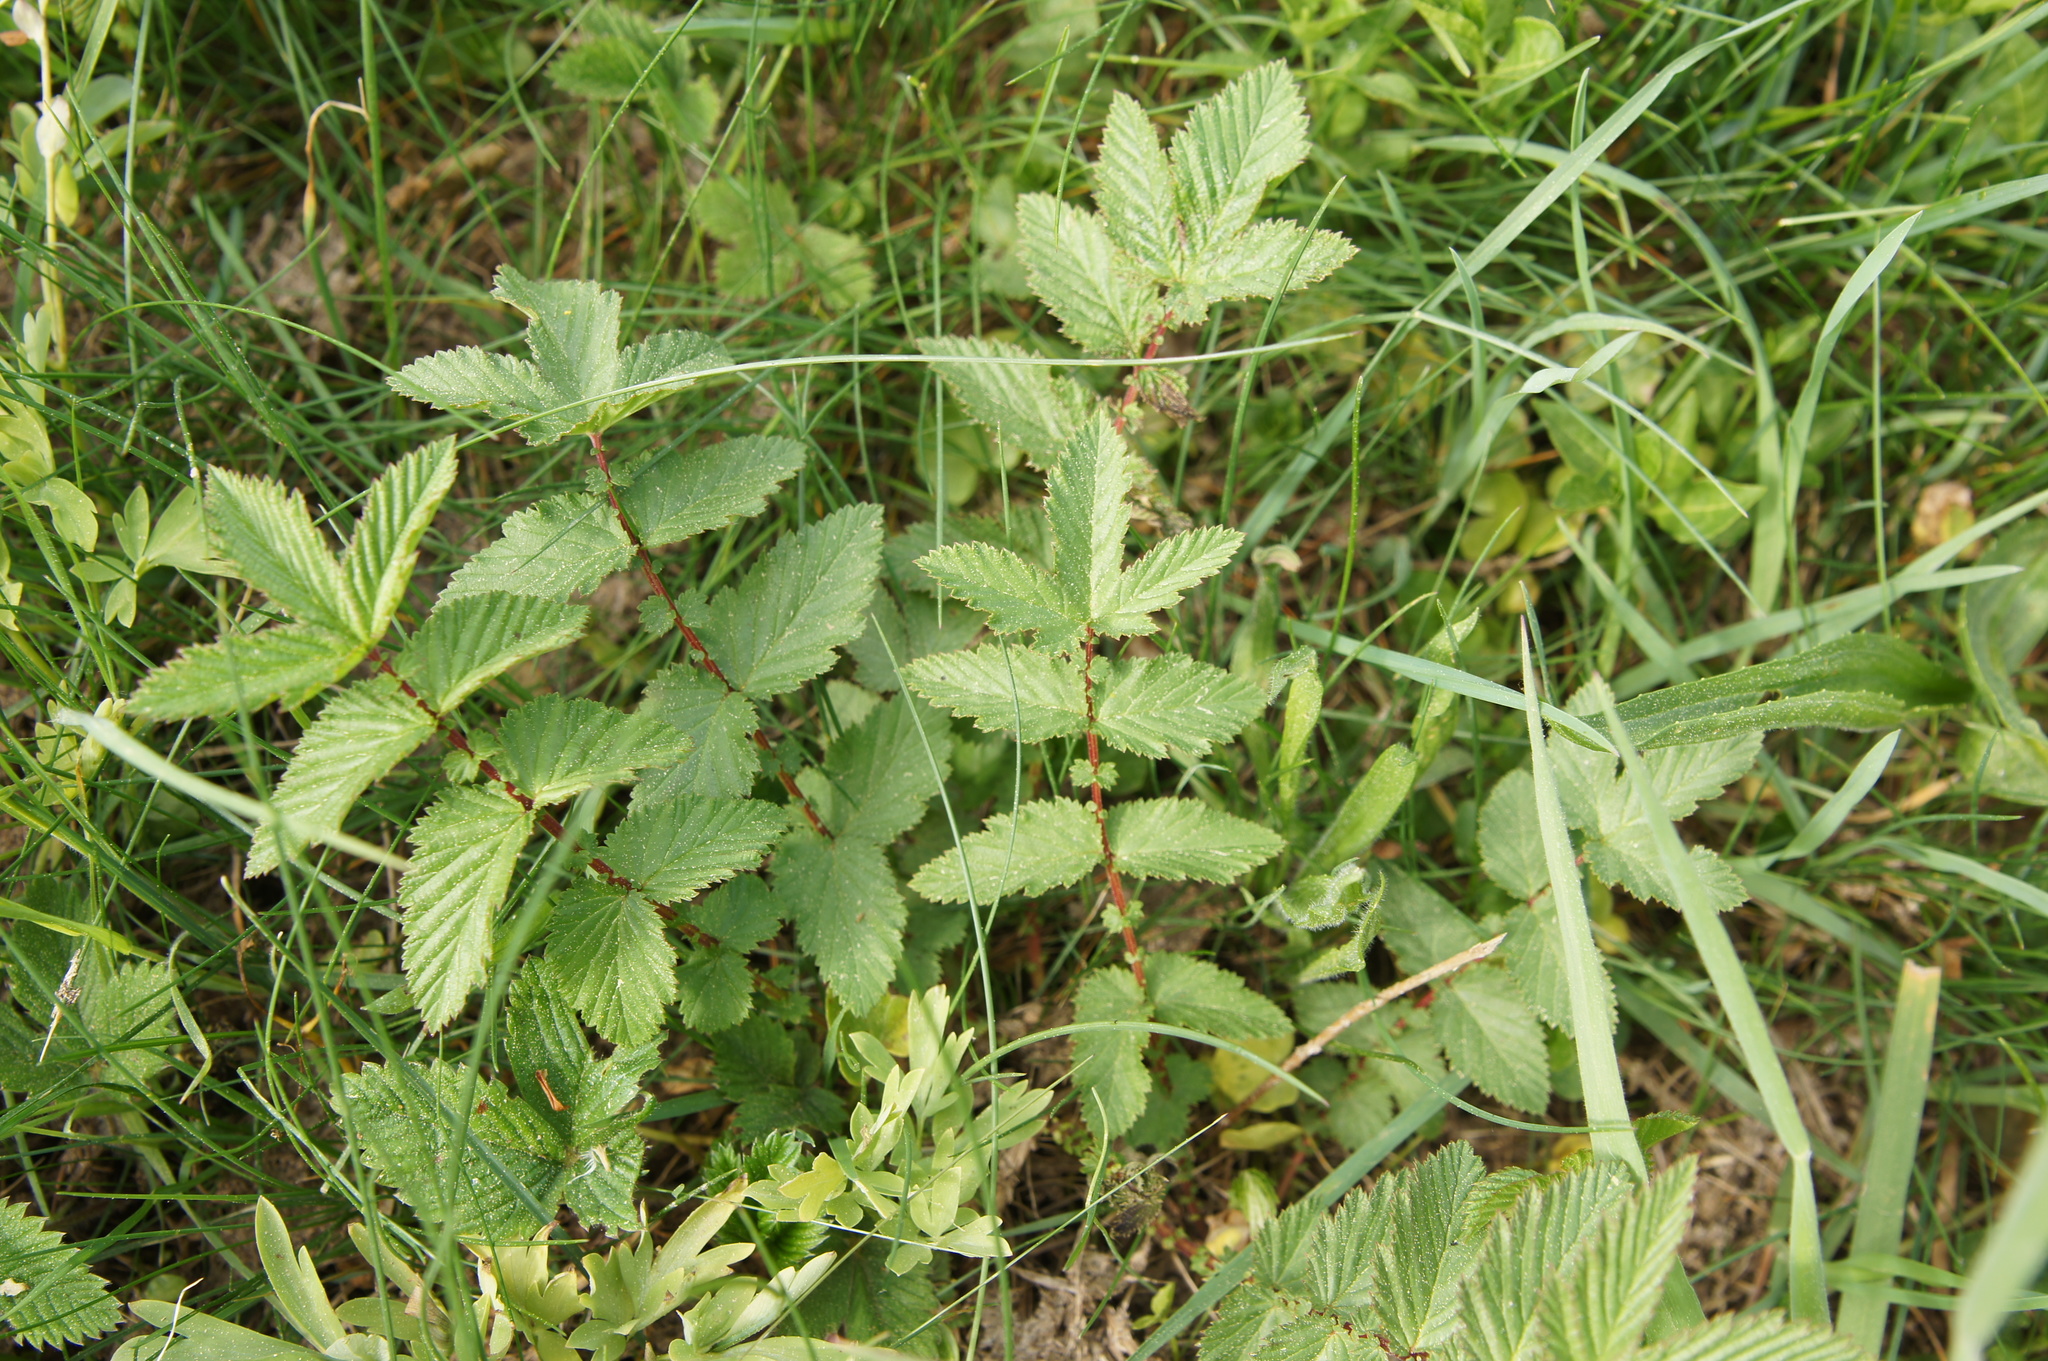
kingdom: Plantae
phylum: Tracheophyta
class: Magnoliopsida
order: Rosales
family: Rosaceae
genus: Filipendula
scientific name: Filipendula ulmaria
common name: Meadowsweet
